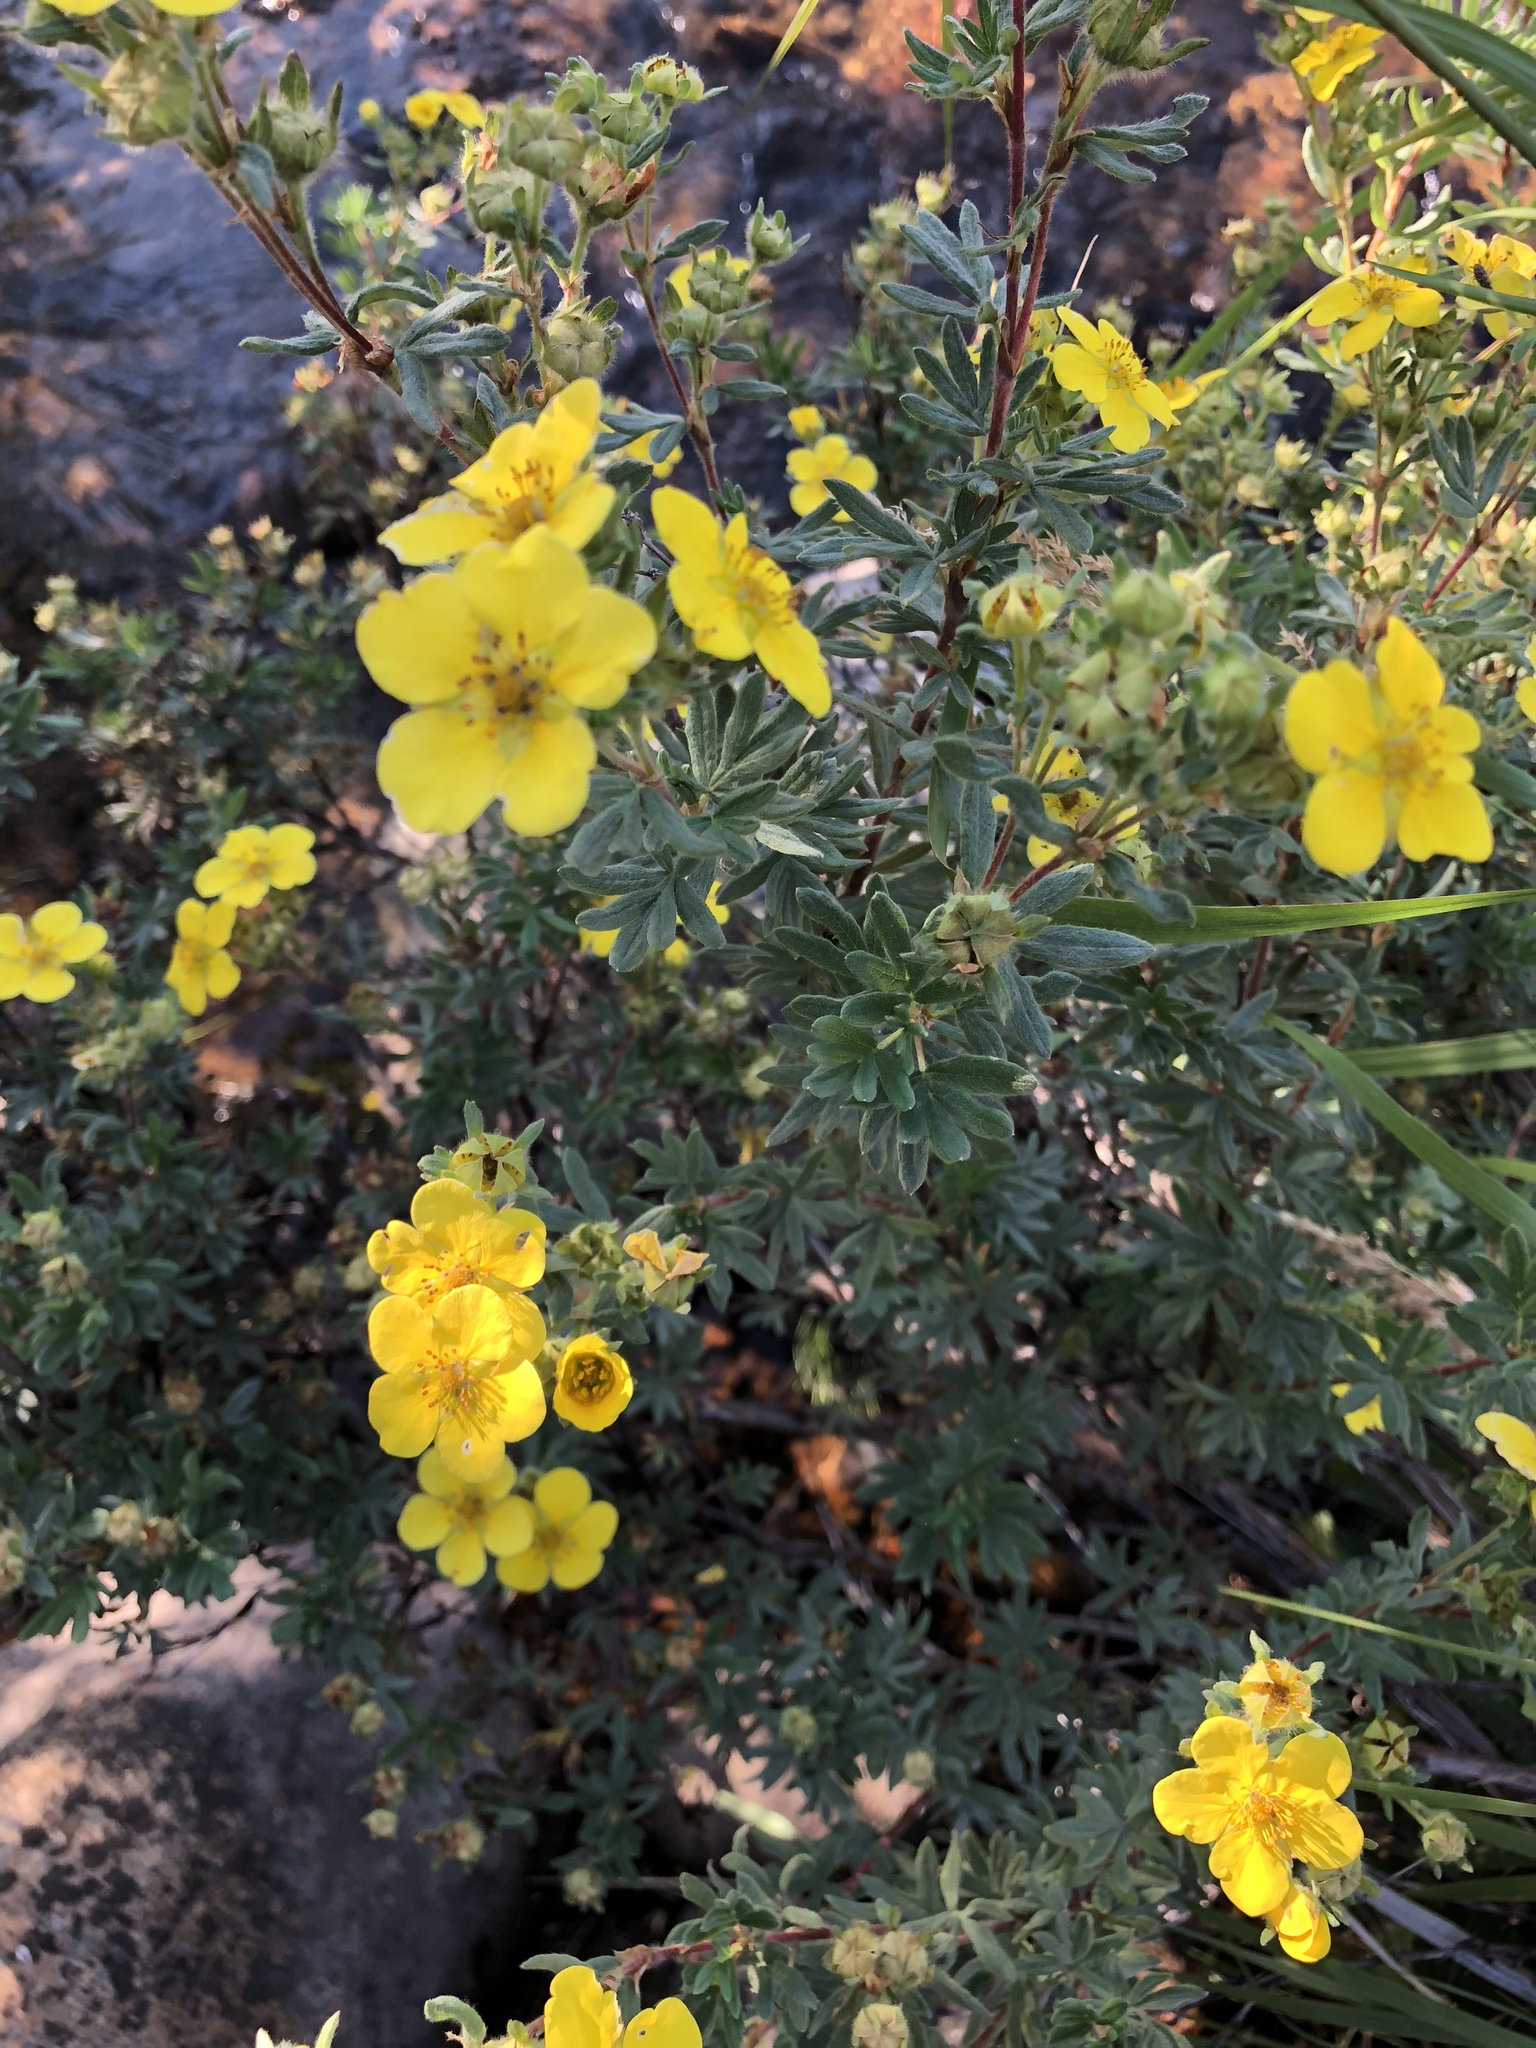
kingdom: Plantae
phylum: Tracheophyta
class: Magnoliopsida
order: Rosales
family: Rosaceae
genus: Dasiphora
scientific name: Dasiphora fruticosa
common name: Shrubby cinquefoil
